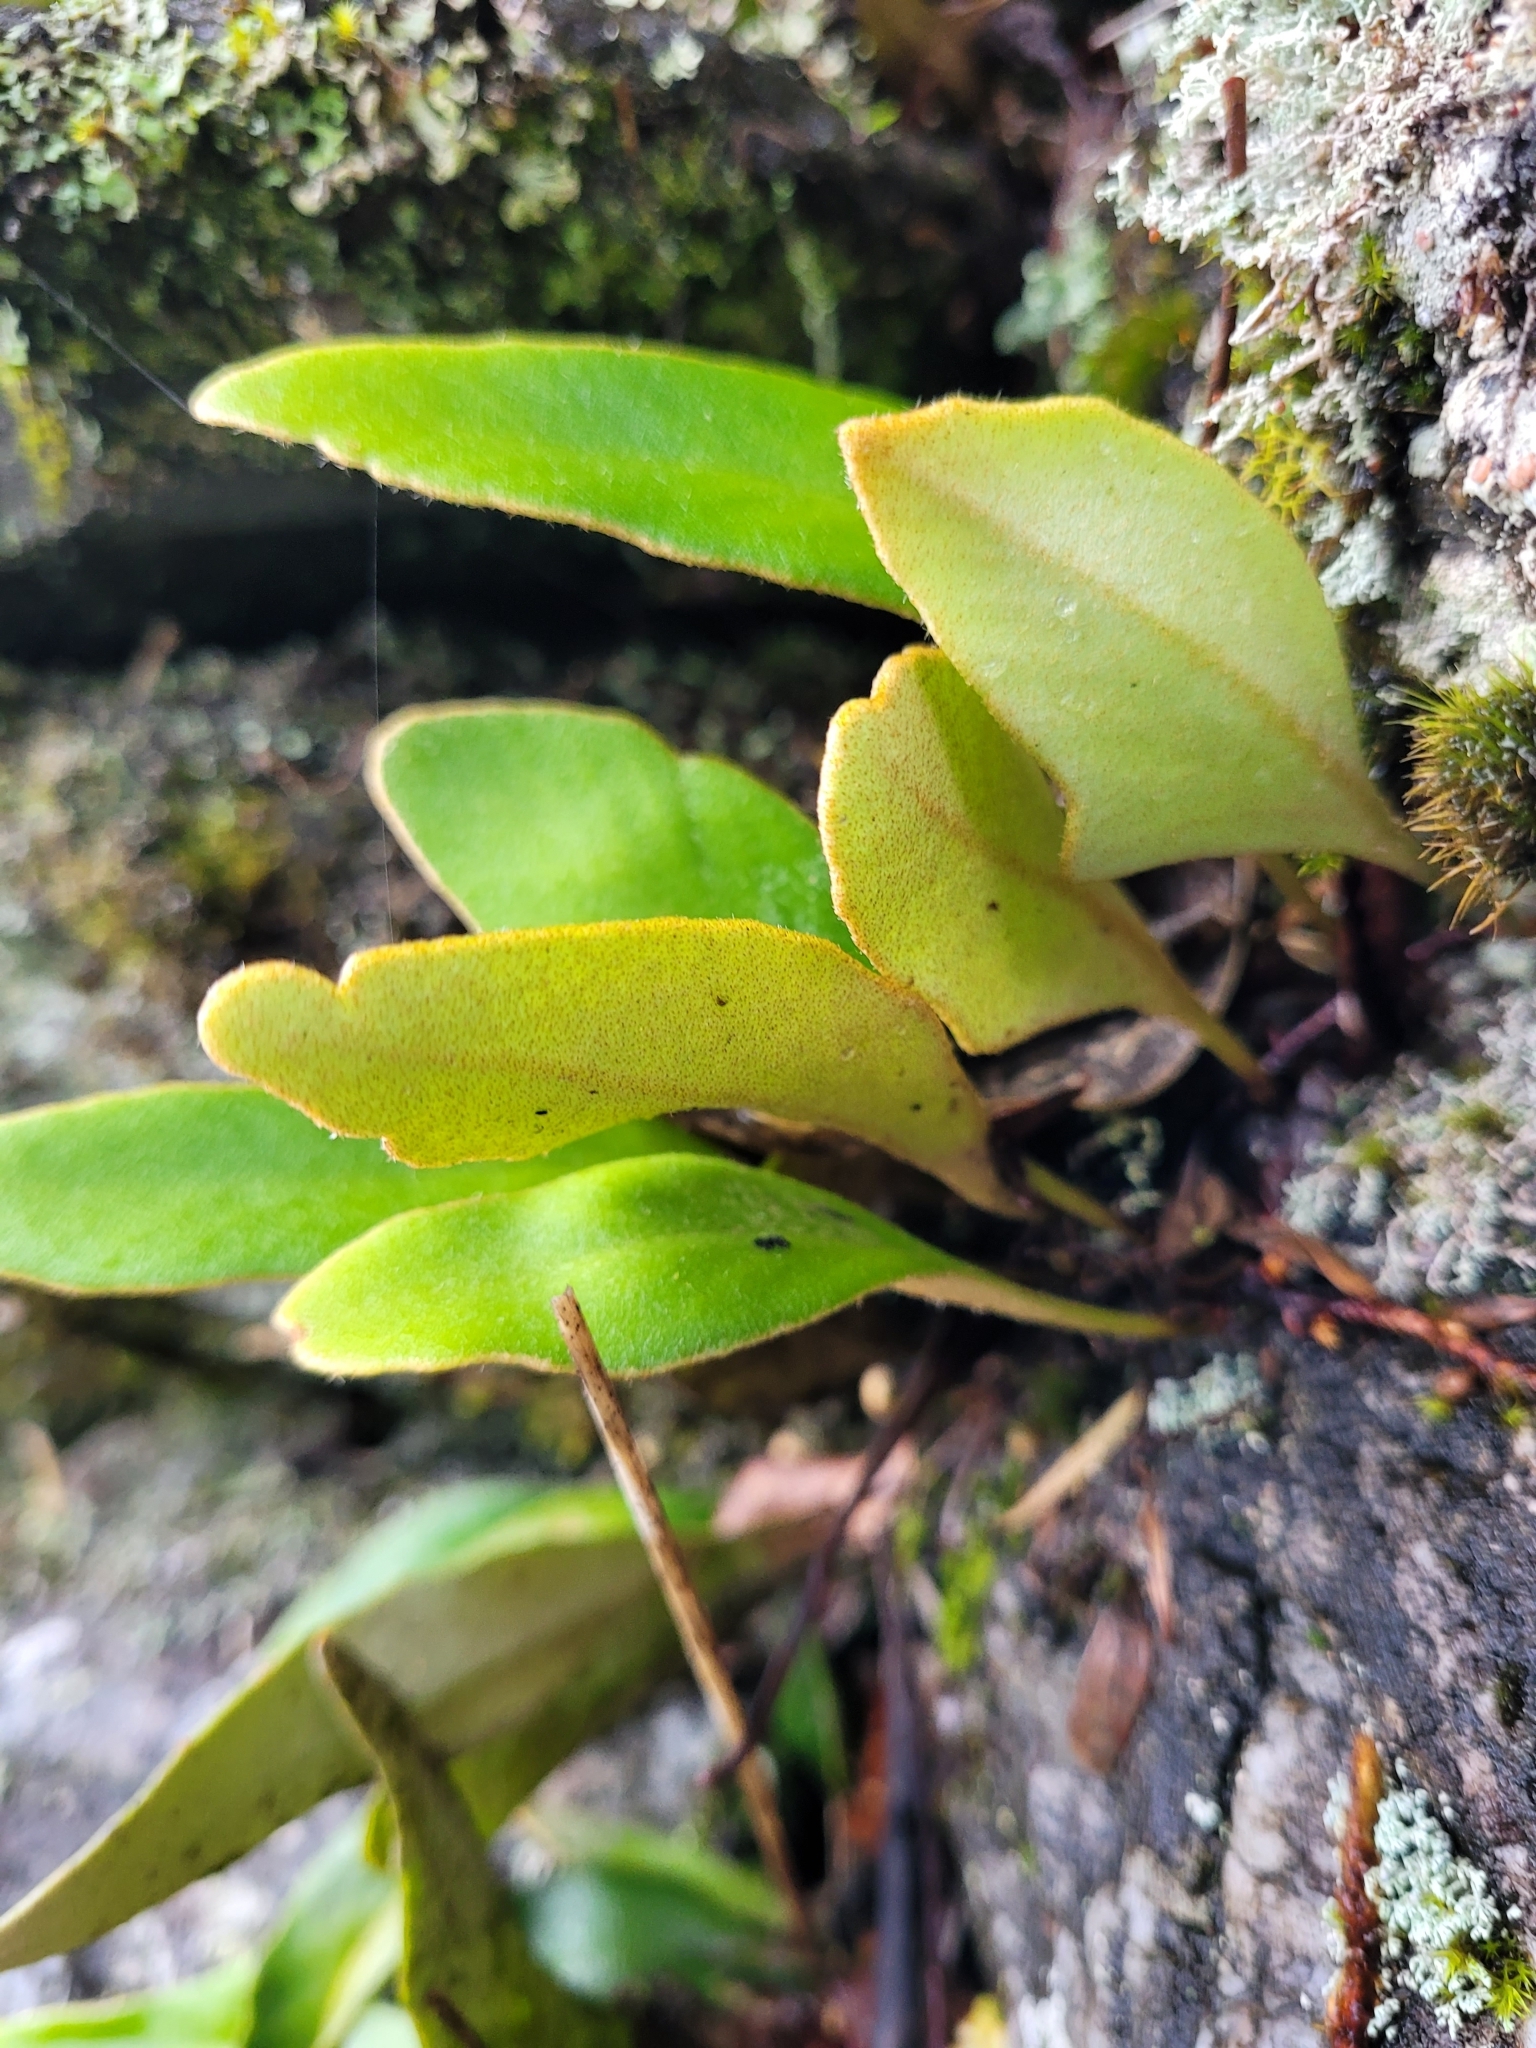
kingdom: Plantae
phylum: Tracheophyta
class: Polypodiopsida
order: Polypodiales
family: Polypodiaceae
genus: Pyrrosia
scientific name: Pyrrosia eleagnifolia
